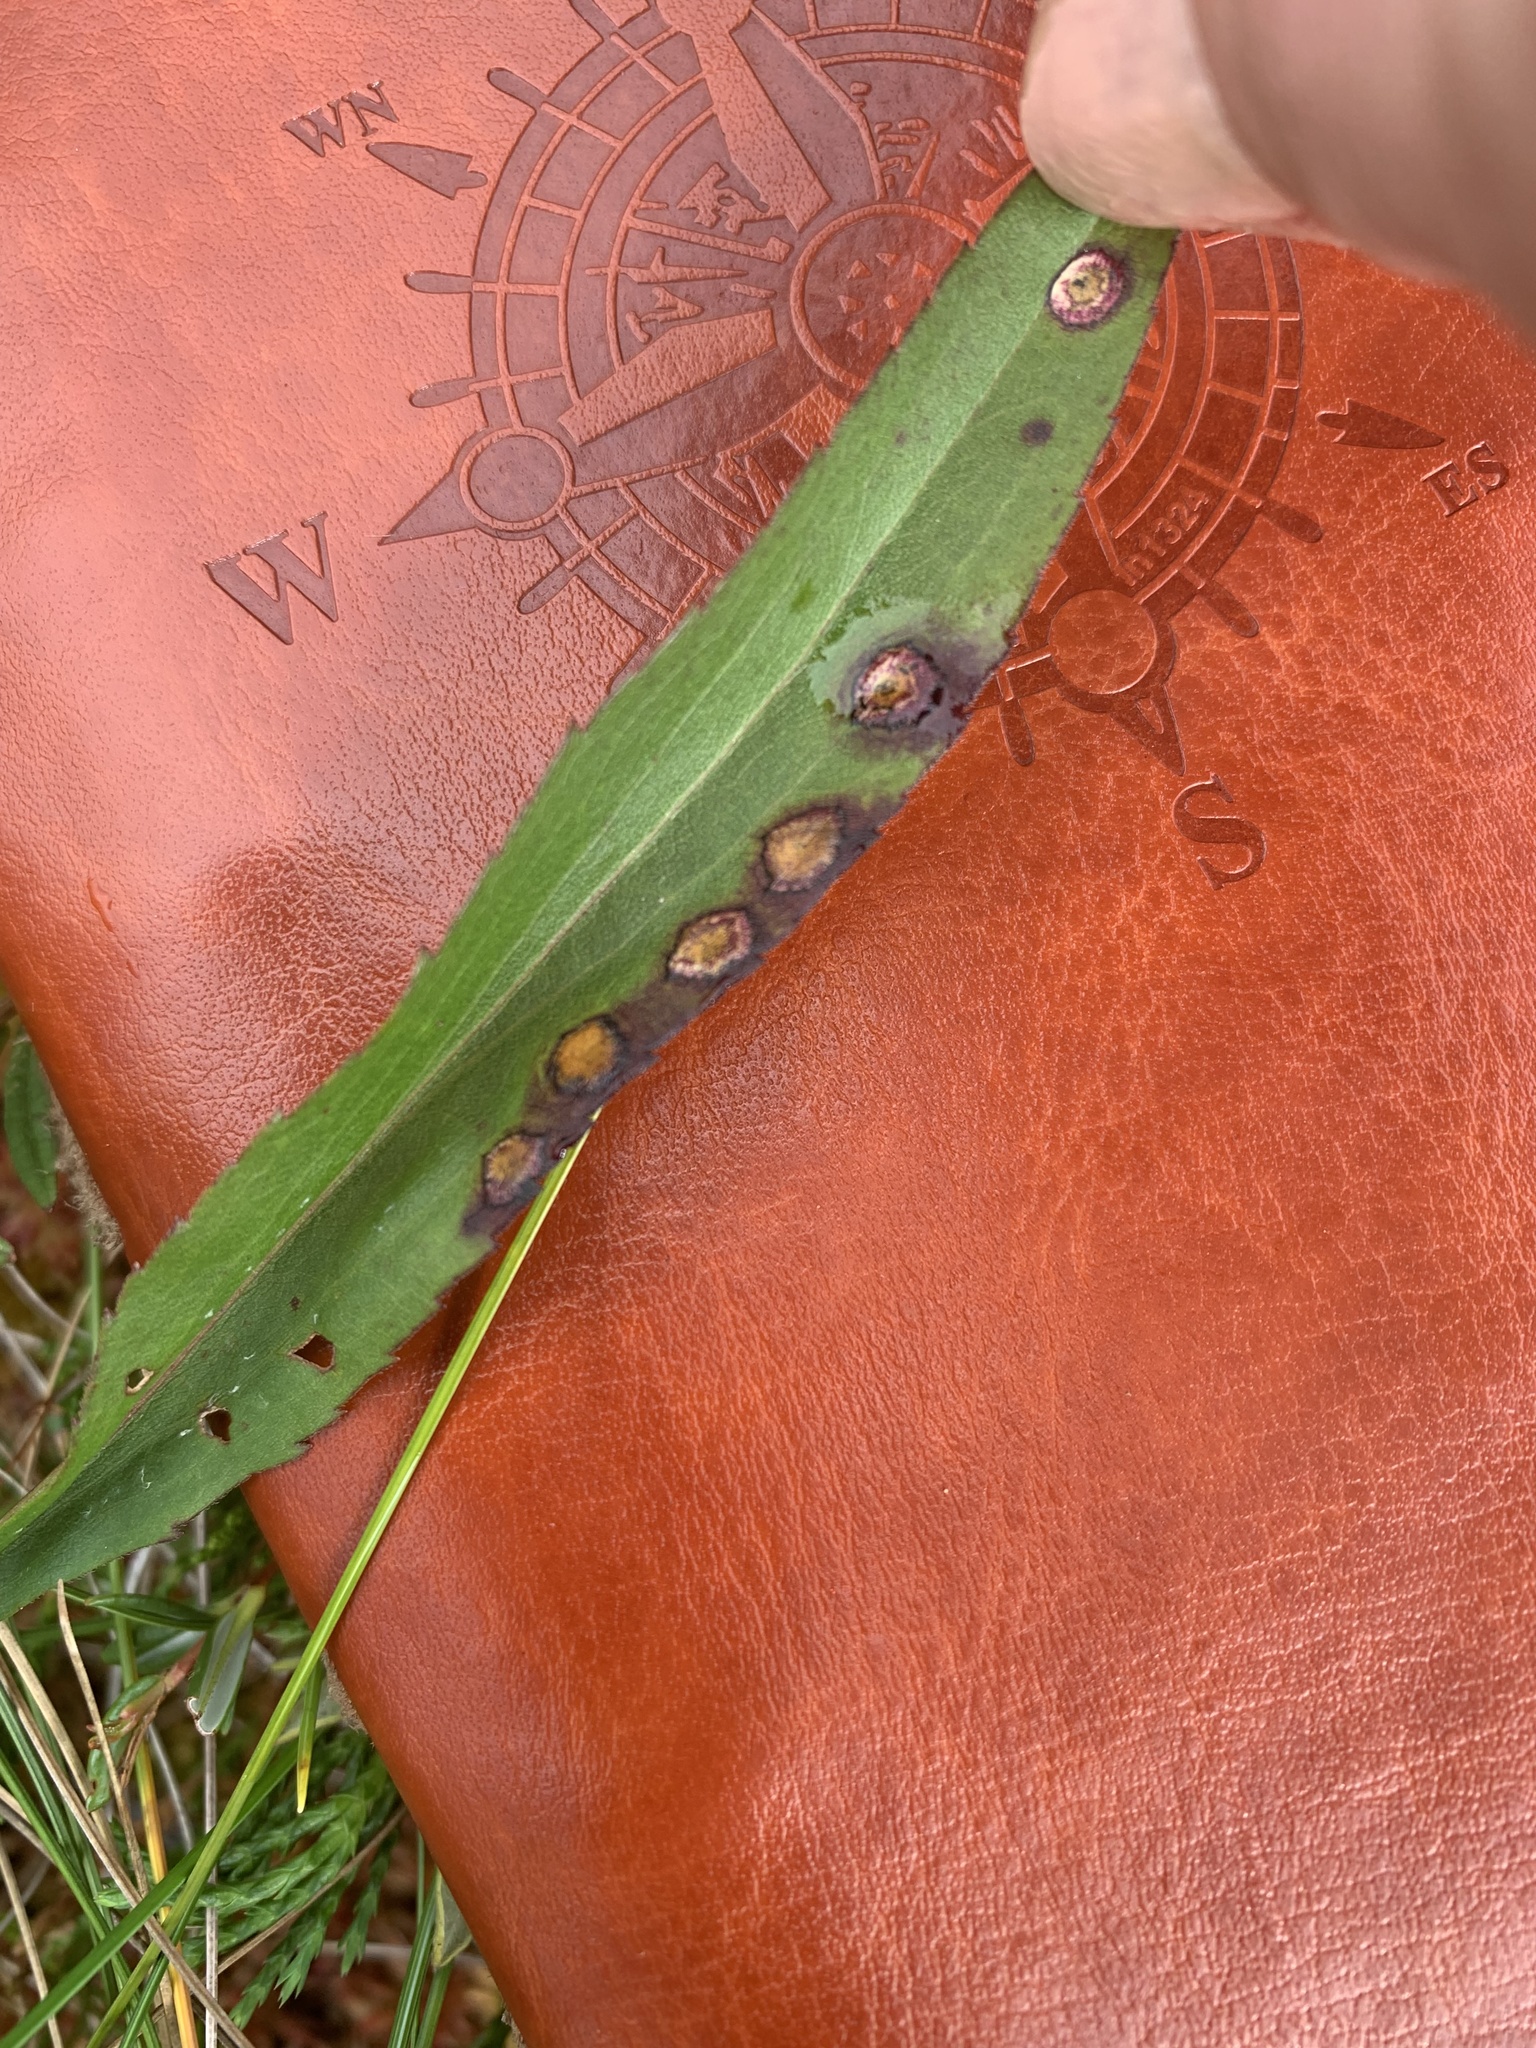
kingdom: Animalia
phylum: Arthropoda
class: Insecta
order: Diptera
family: Cecidomyiidae
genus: Asteromyia
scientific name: Asteromyia carbonifera
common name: Carbonifera goldenrod gall midge
